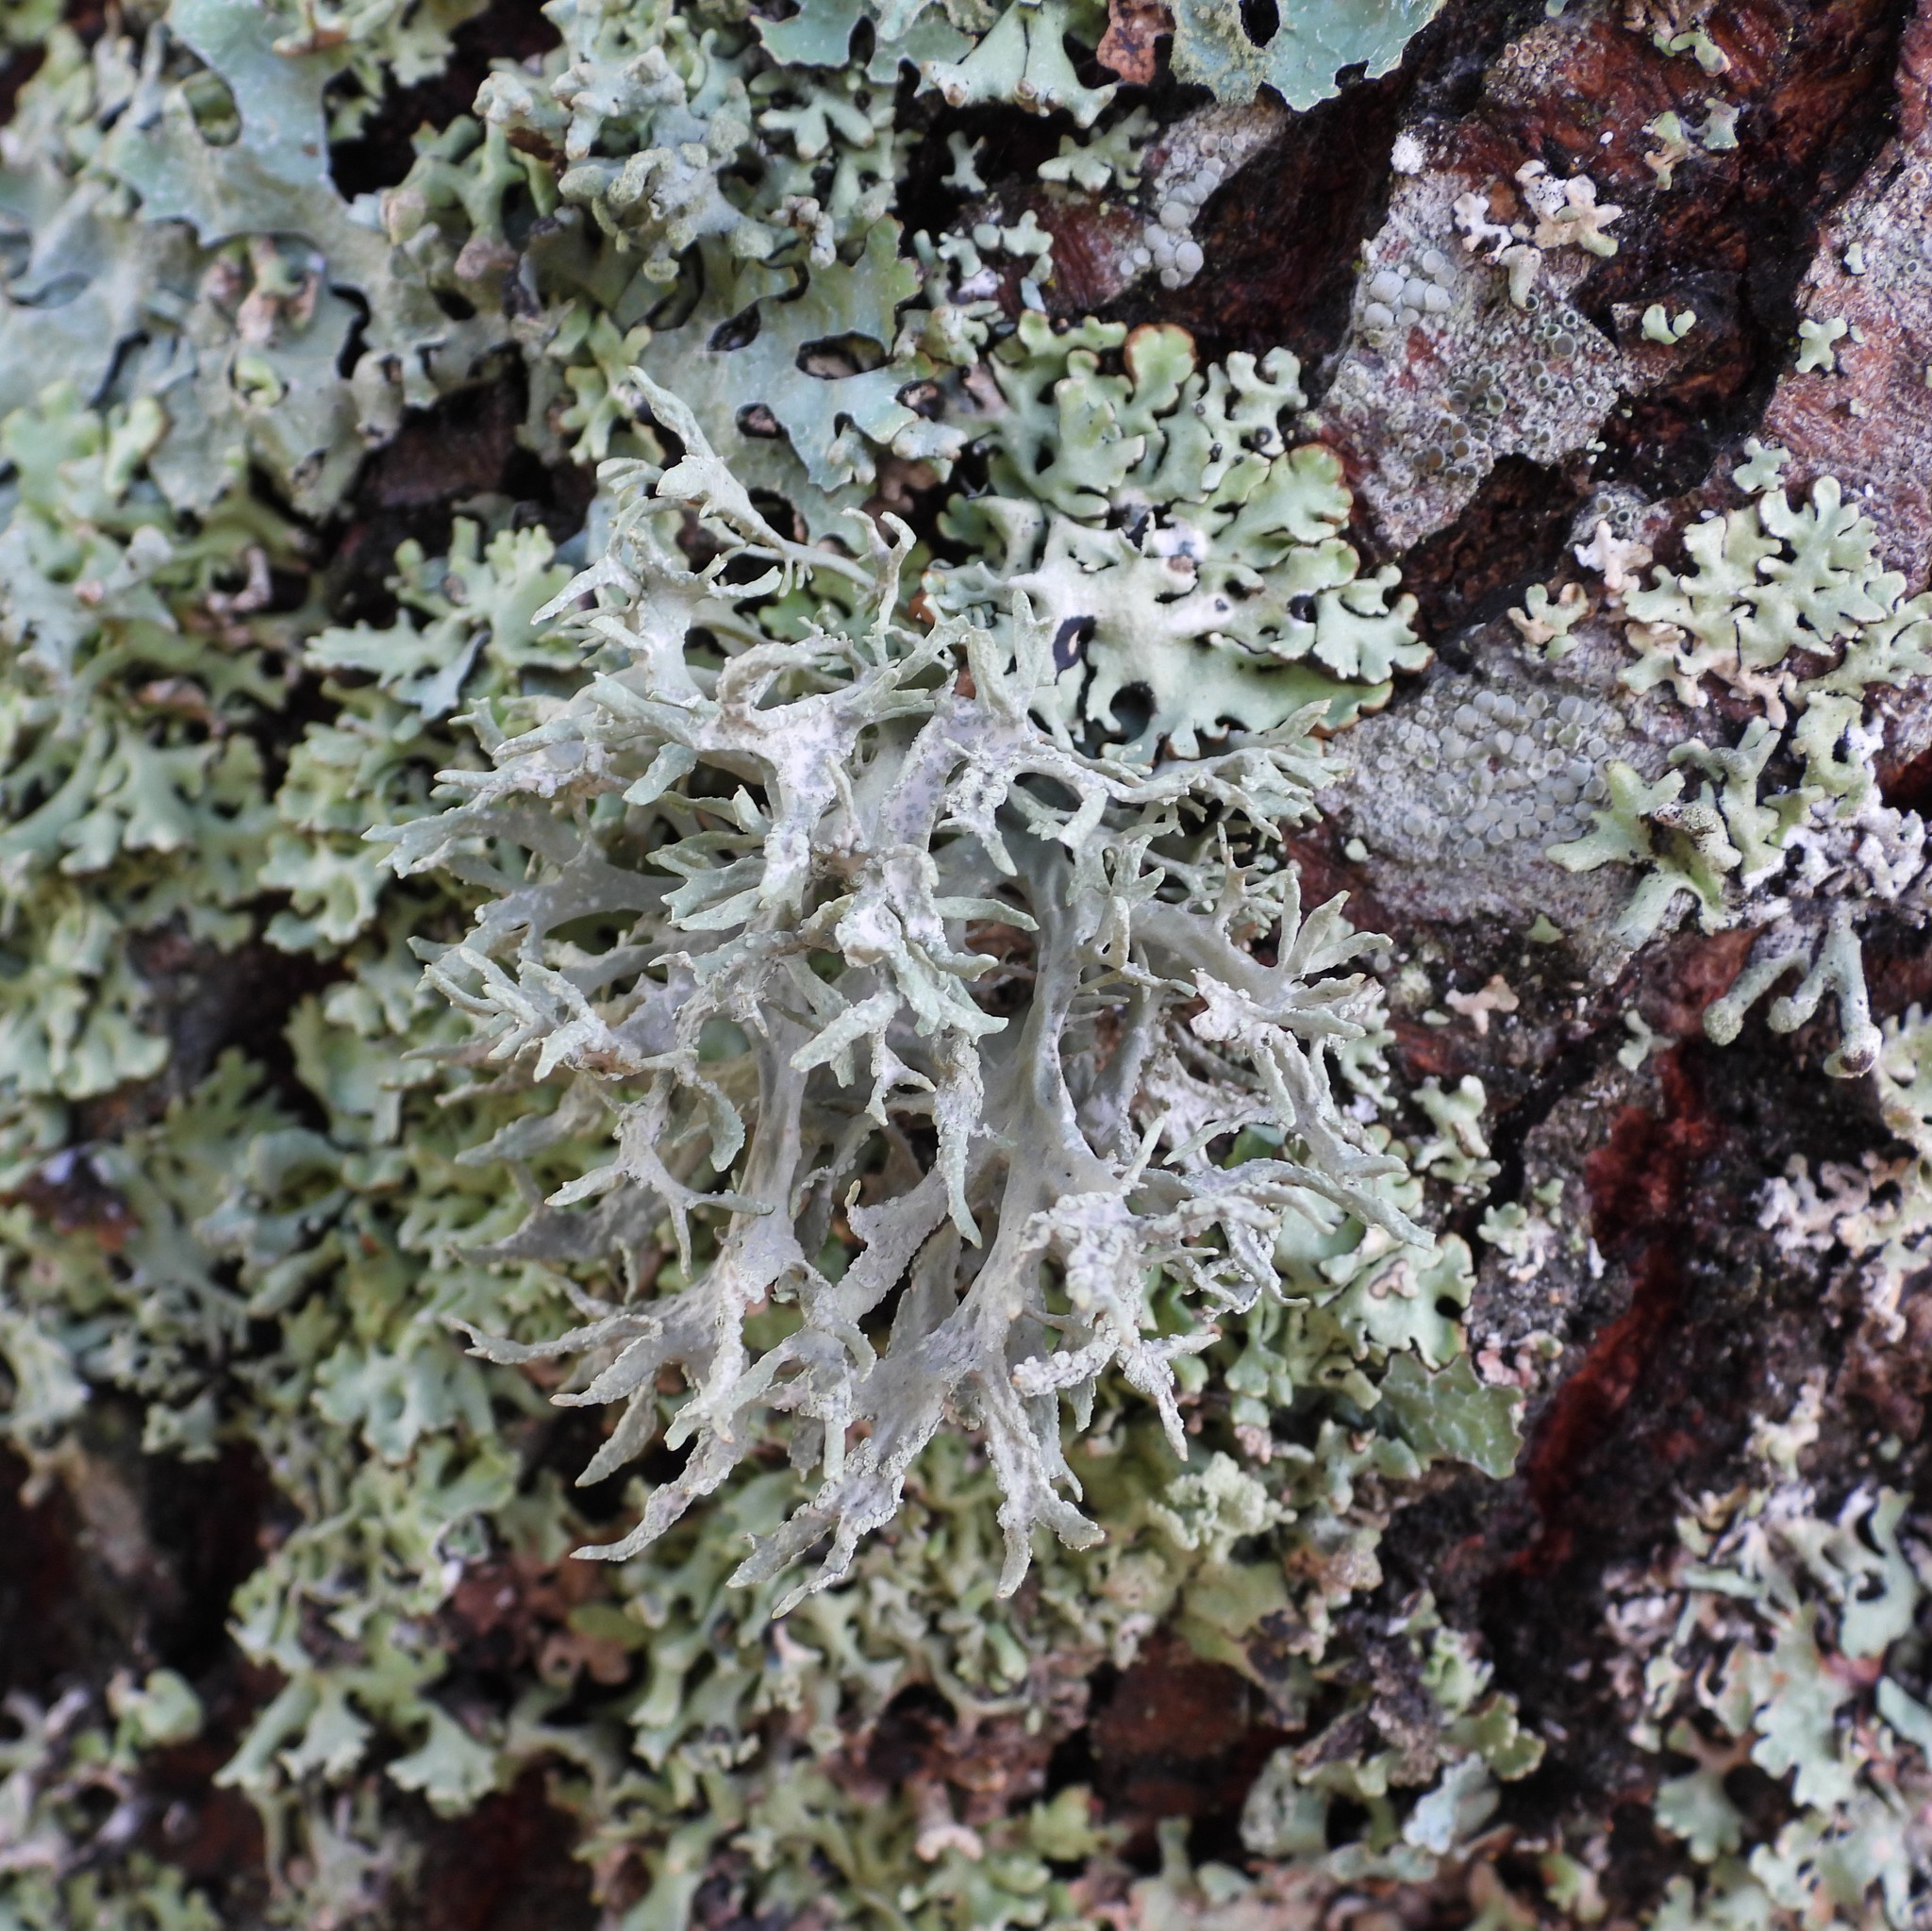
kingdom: Fungi
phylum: Ascomycota
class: Lecanoromycetes
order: Lecanorales
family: Parmeliaceae
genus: Evernia
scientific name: Evernia prunastri
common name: Oak moss
